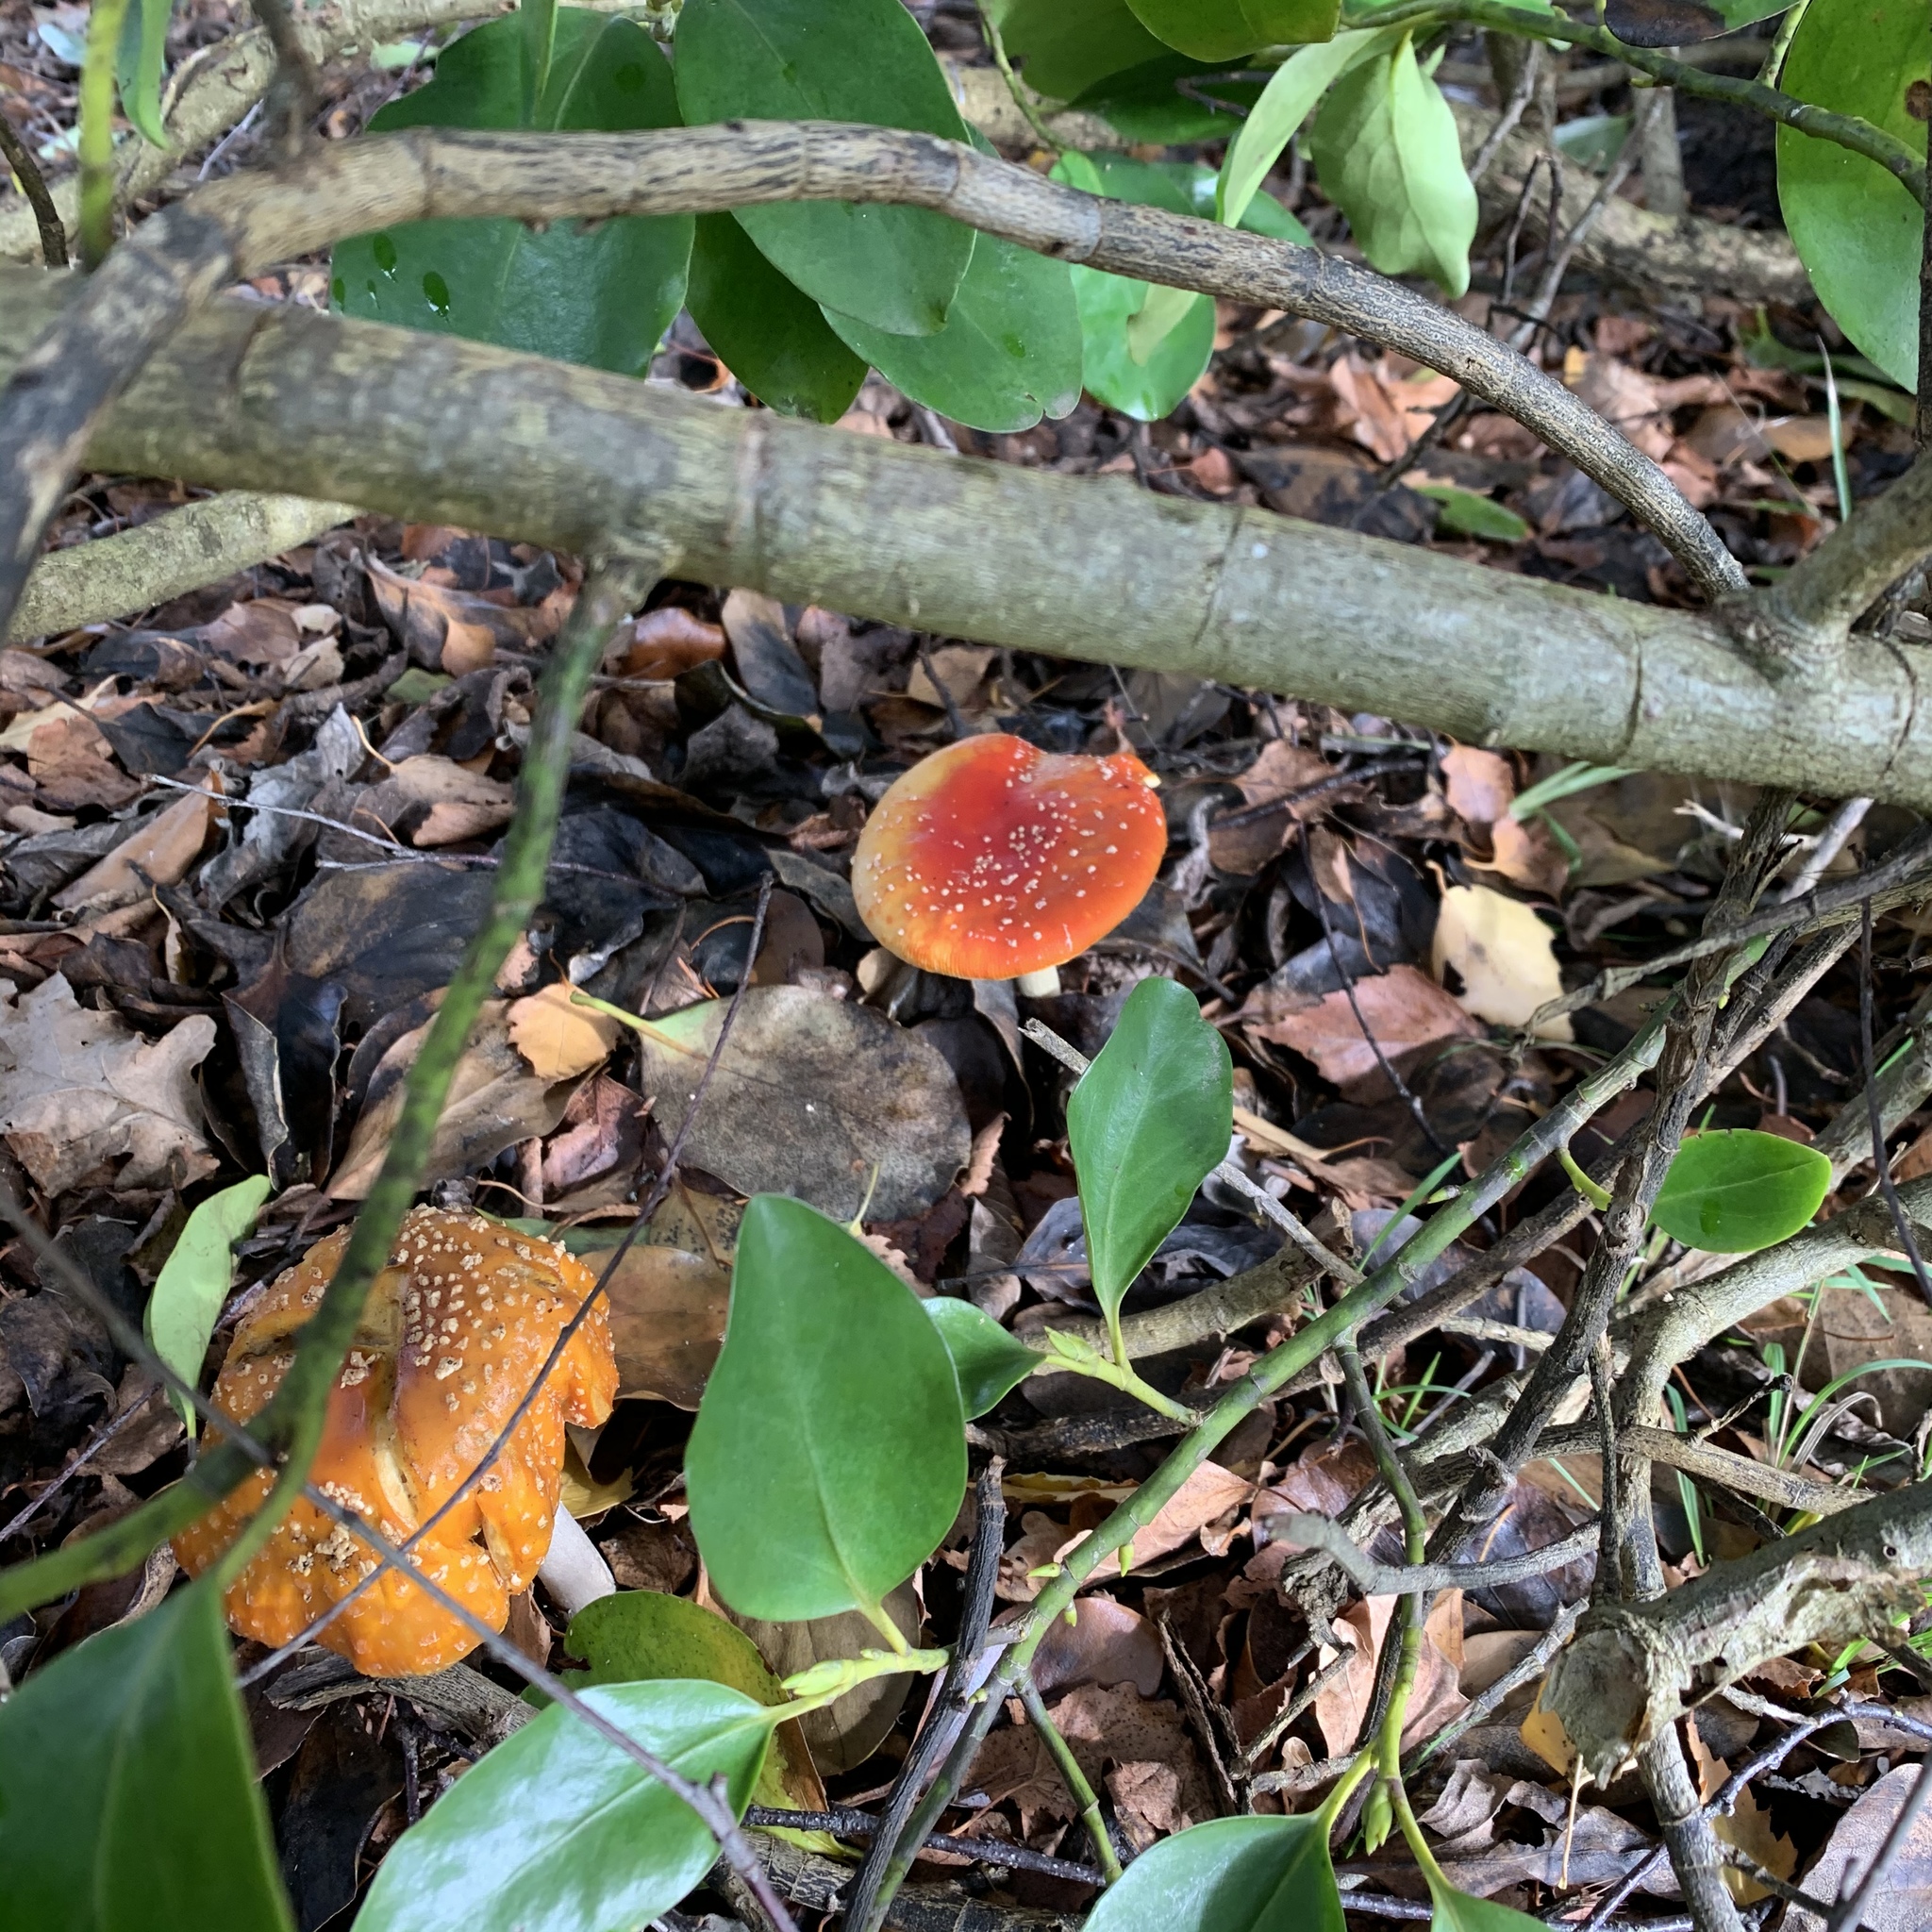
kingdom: Fungi
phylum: Basidiomycota
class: Agaricomycetes
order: Agaricales
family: Amanitaceae
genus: Amanita
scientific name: Amanita muscaria
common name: Fly agaric
